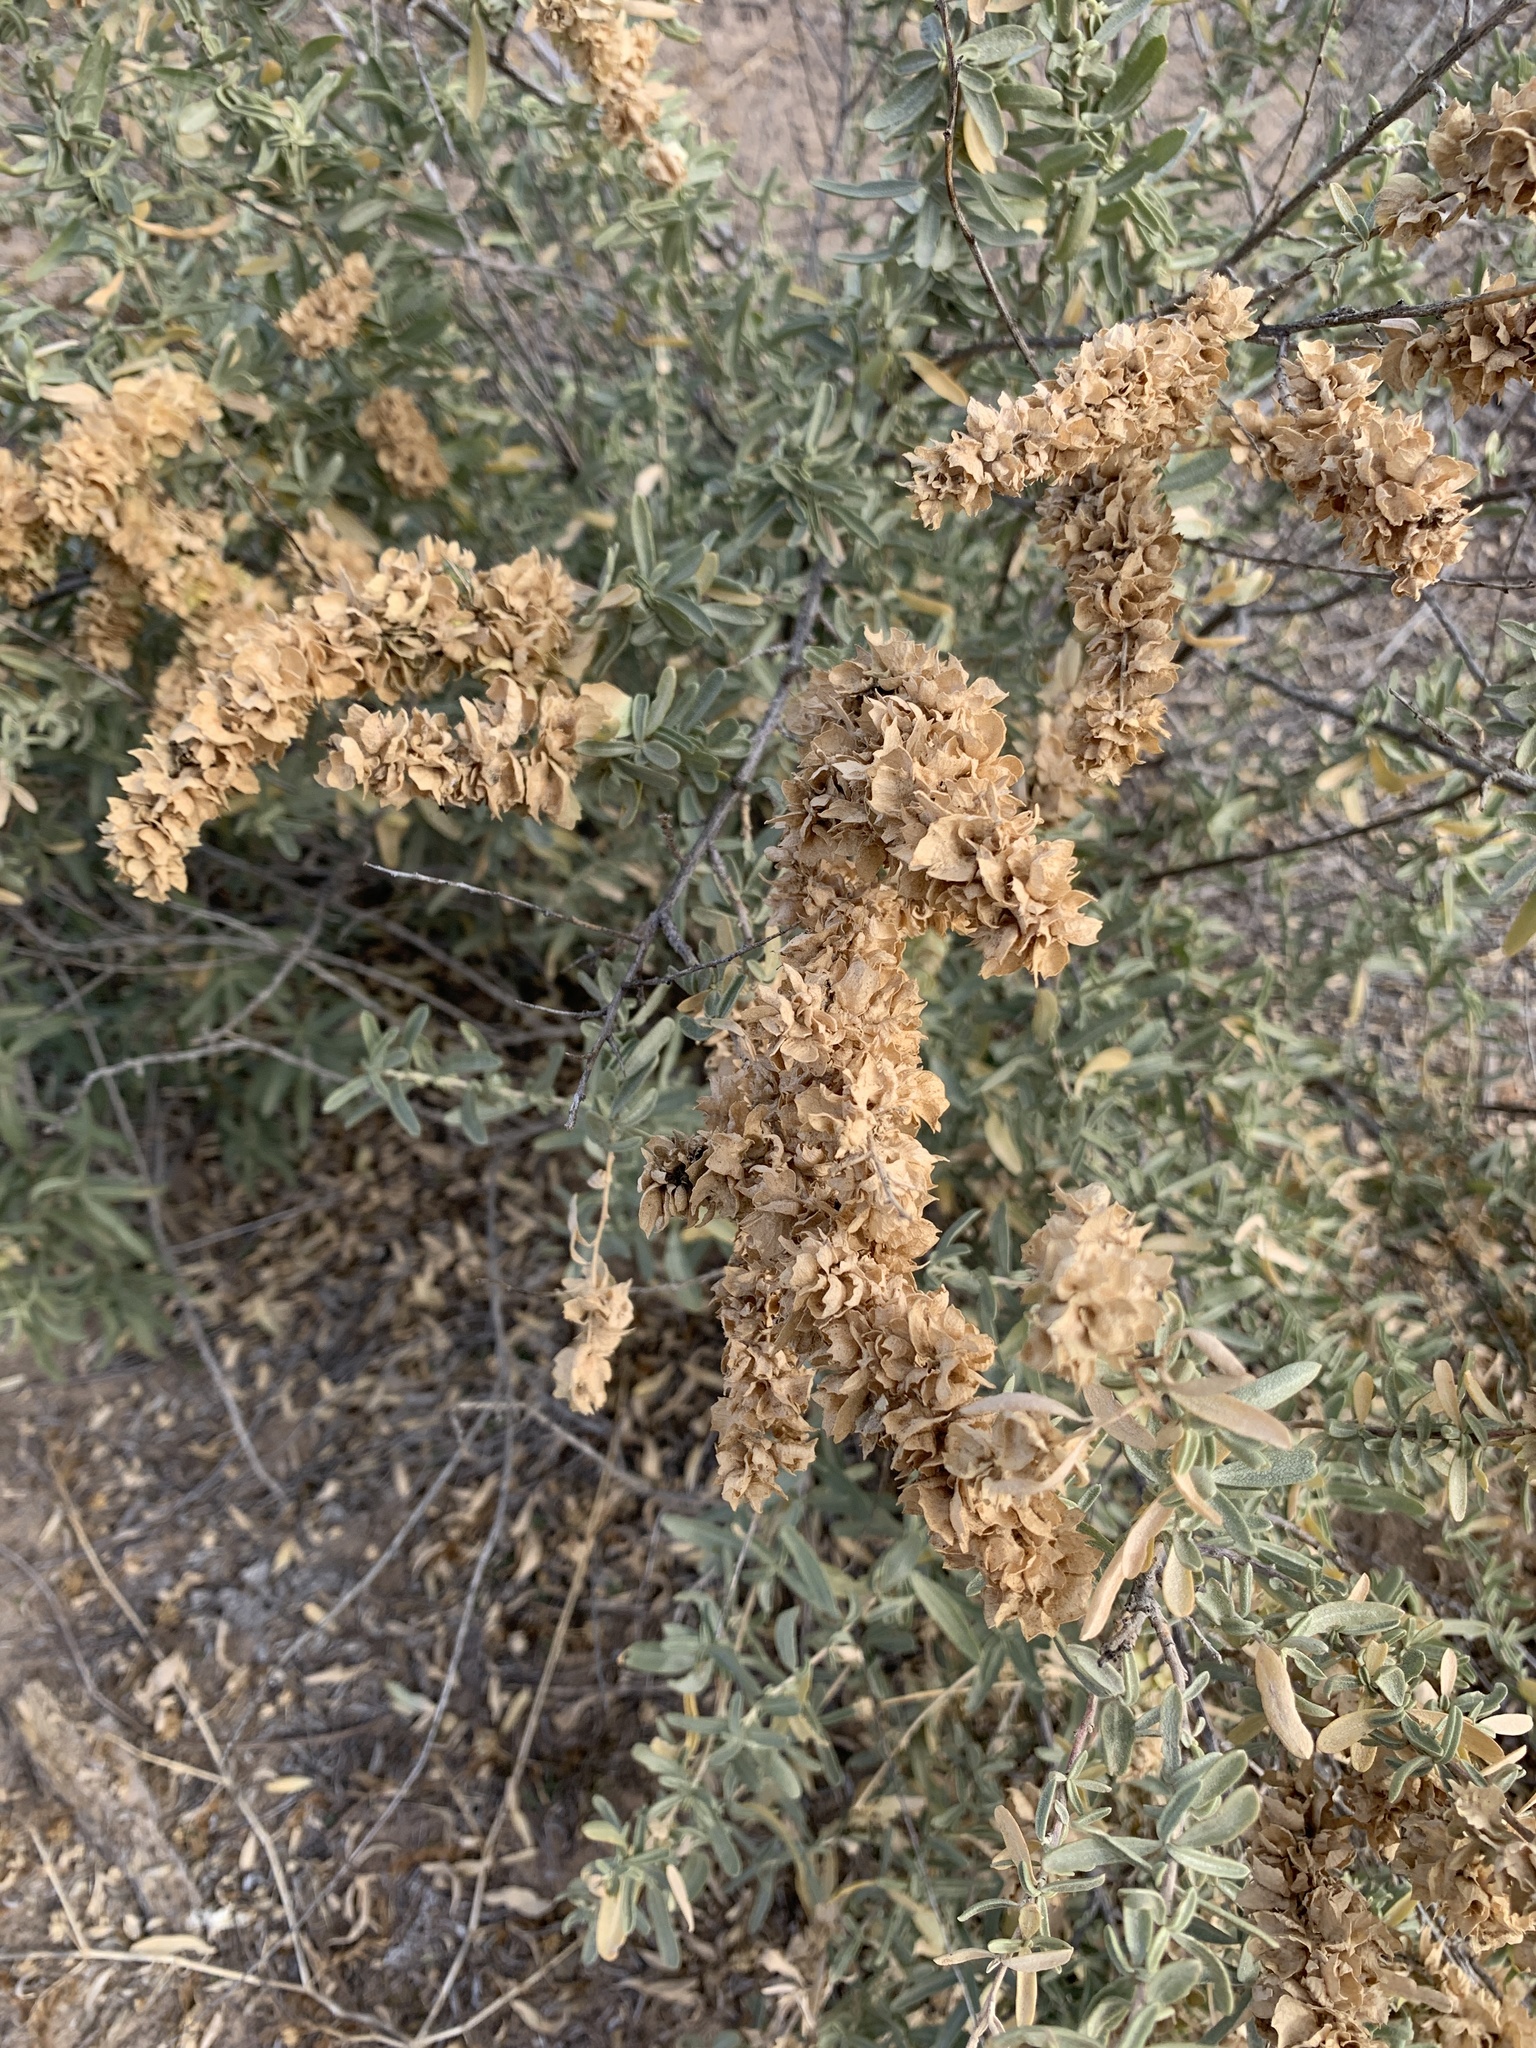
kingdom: Plantae
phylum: Tracheophyta
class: Magnoliopsida
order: Caryophyllales
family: Amaranthaceae
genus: Atriplex
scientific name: Atriplex canescens
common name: Four-wing saltbush
